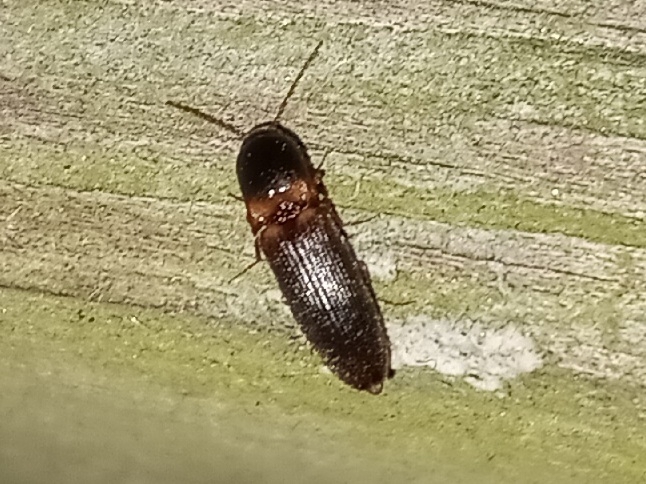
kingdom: Animalia
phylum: Arthropoda
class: Insecta
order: Coleoptera
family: Elateridae
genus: Megapenthes
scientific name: Megapenthes
